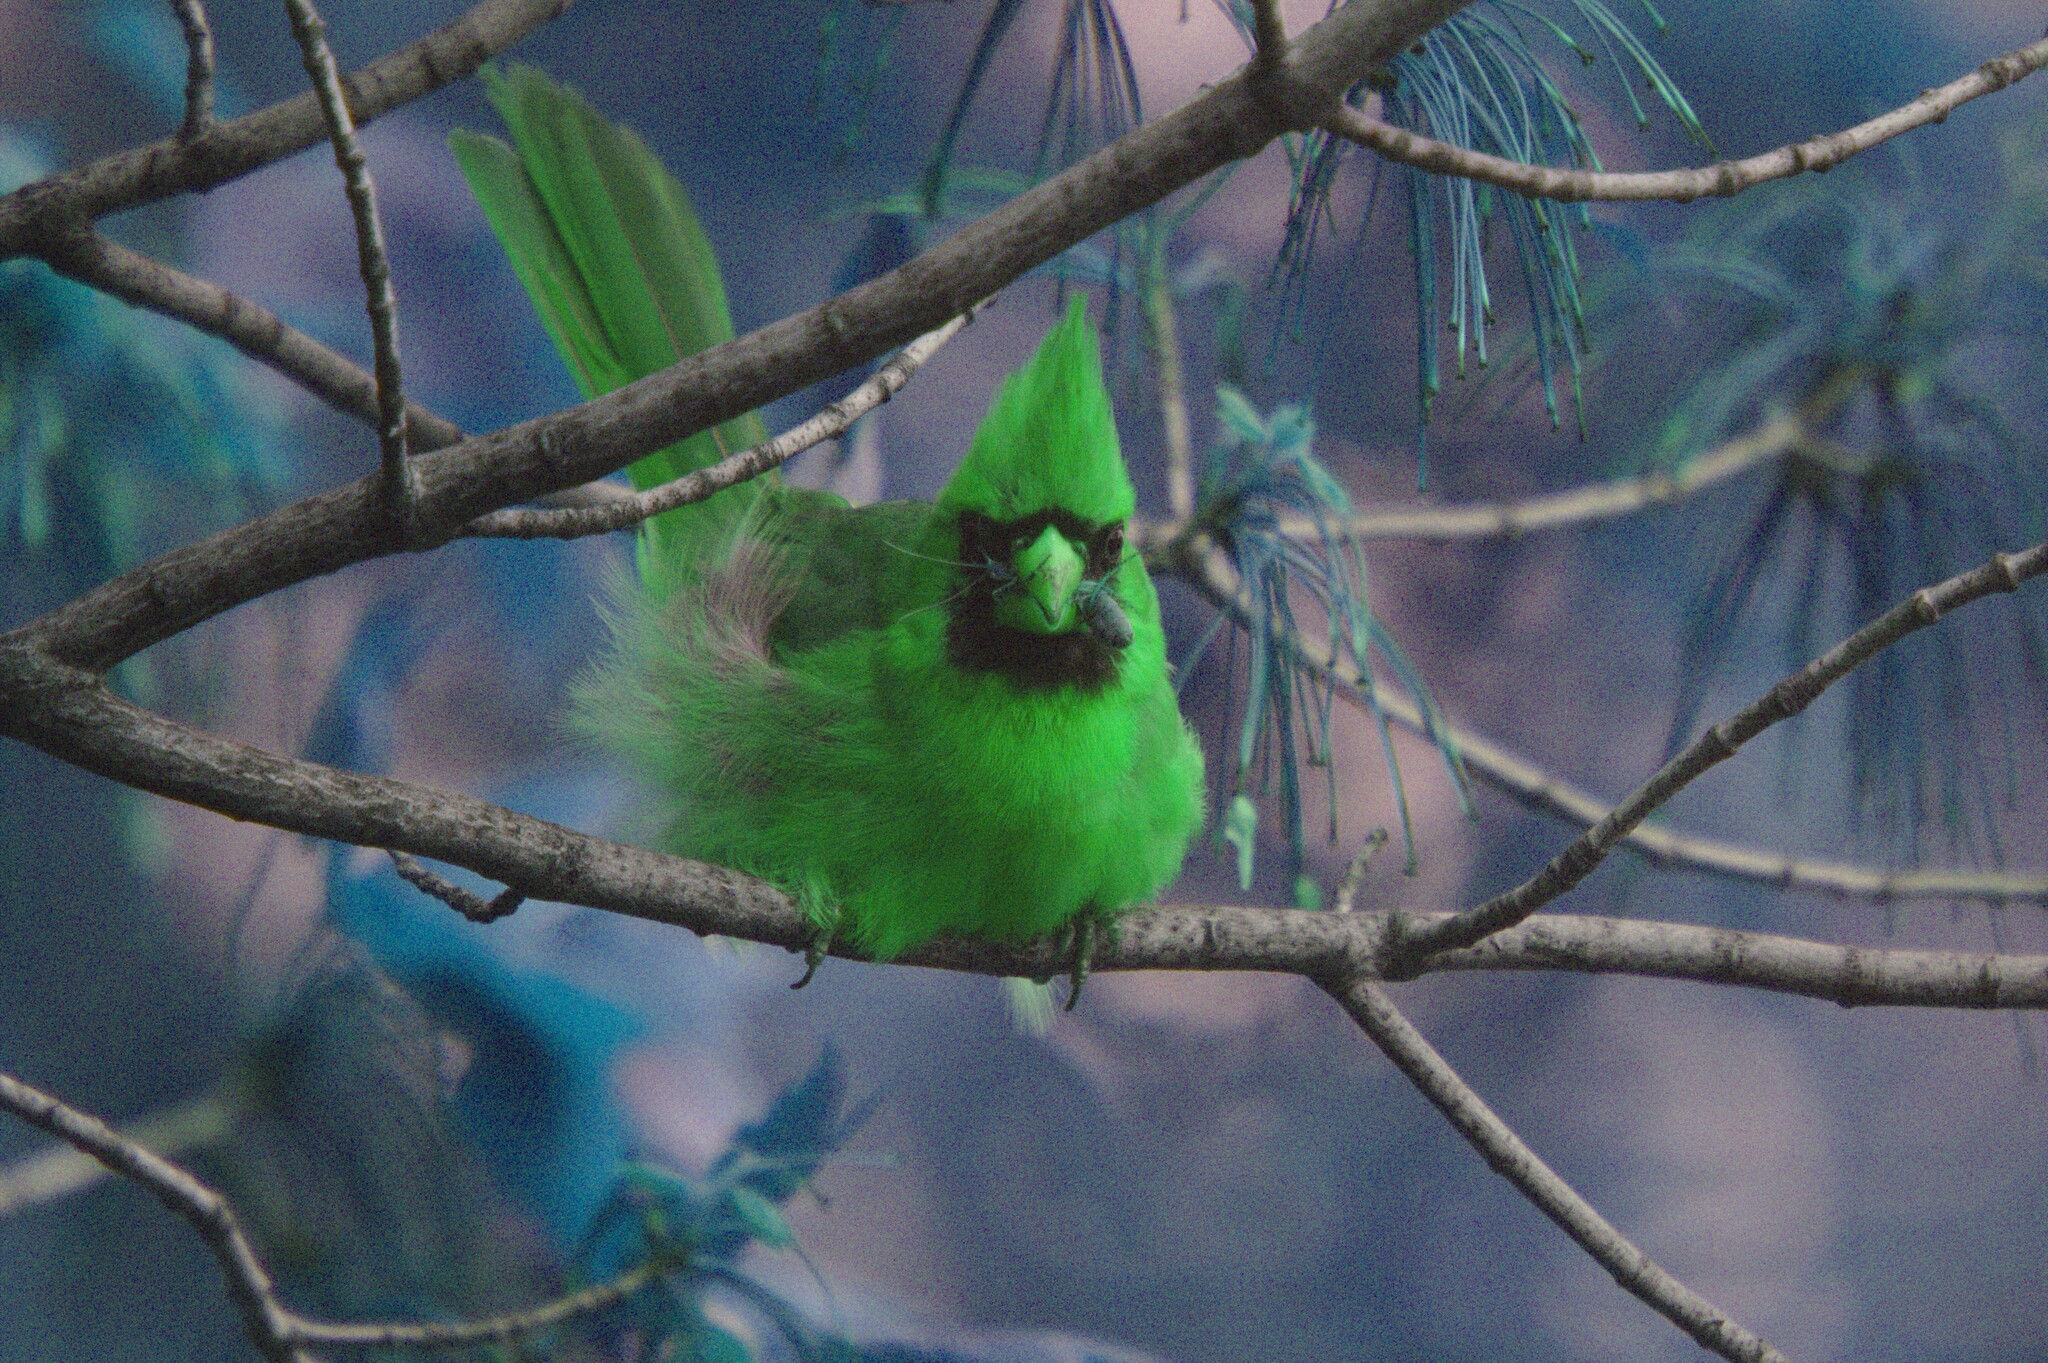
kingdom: Animalia
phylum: Chordata
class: Aves
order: Passeriformes
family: Cardinalidae
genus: Cardinalis
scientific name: Cardinalis cardinalis
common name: Northern cardinal
